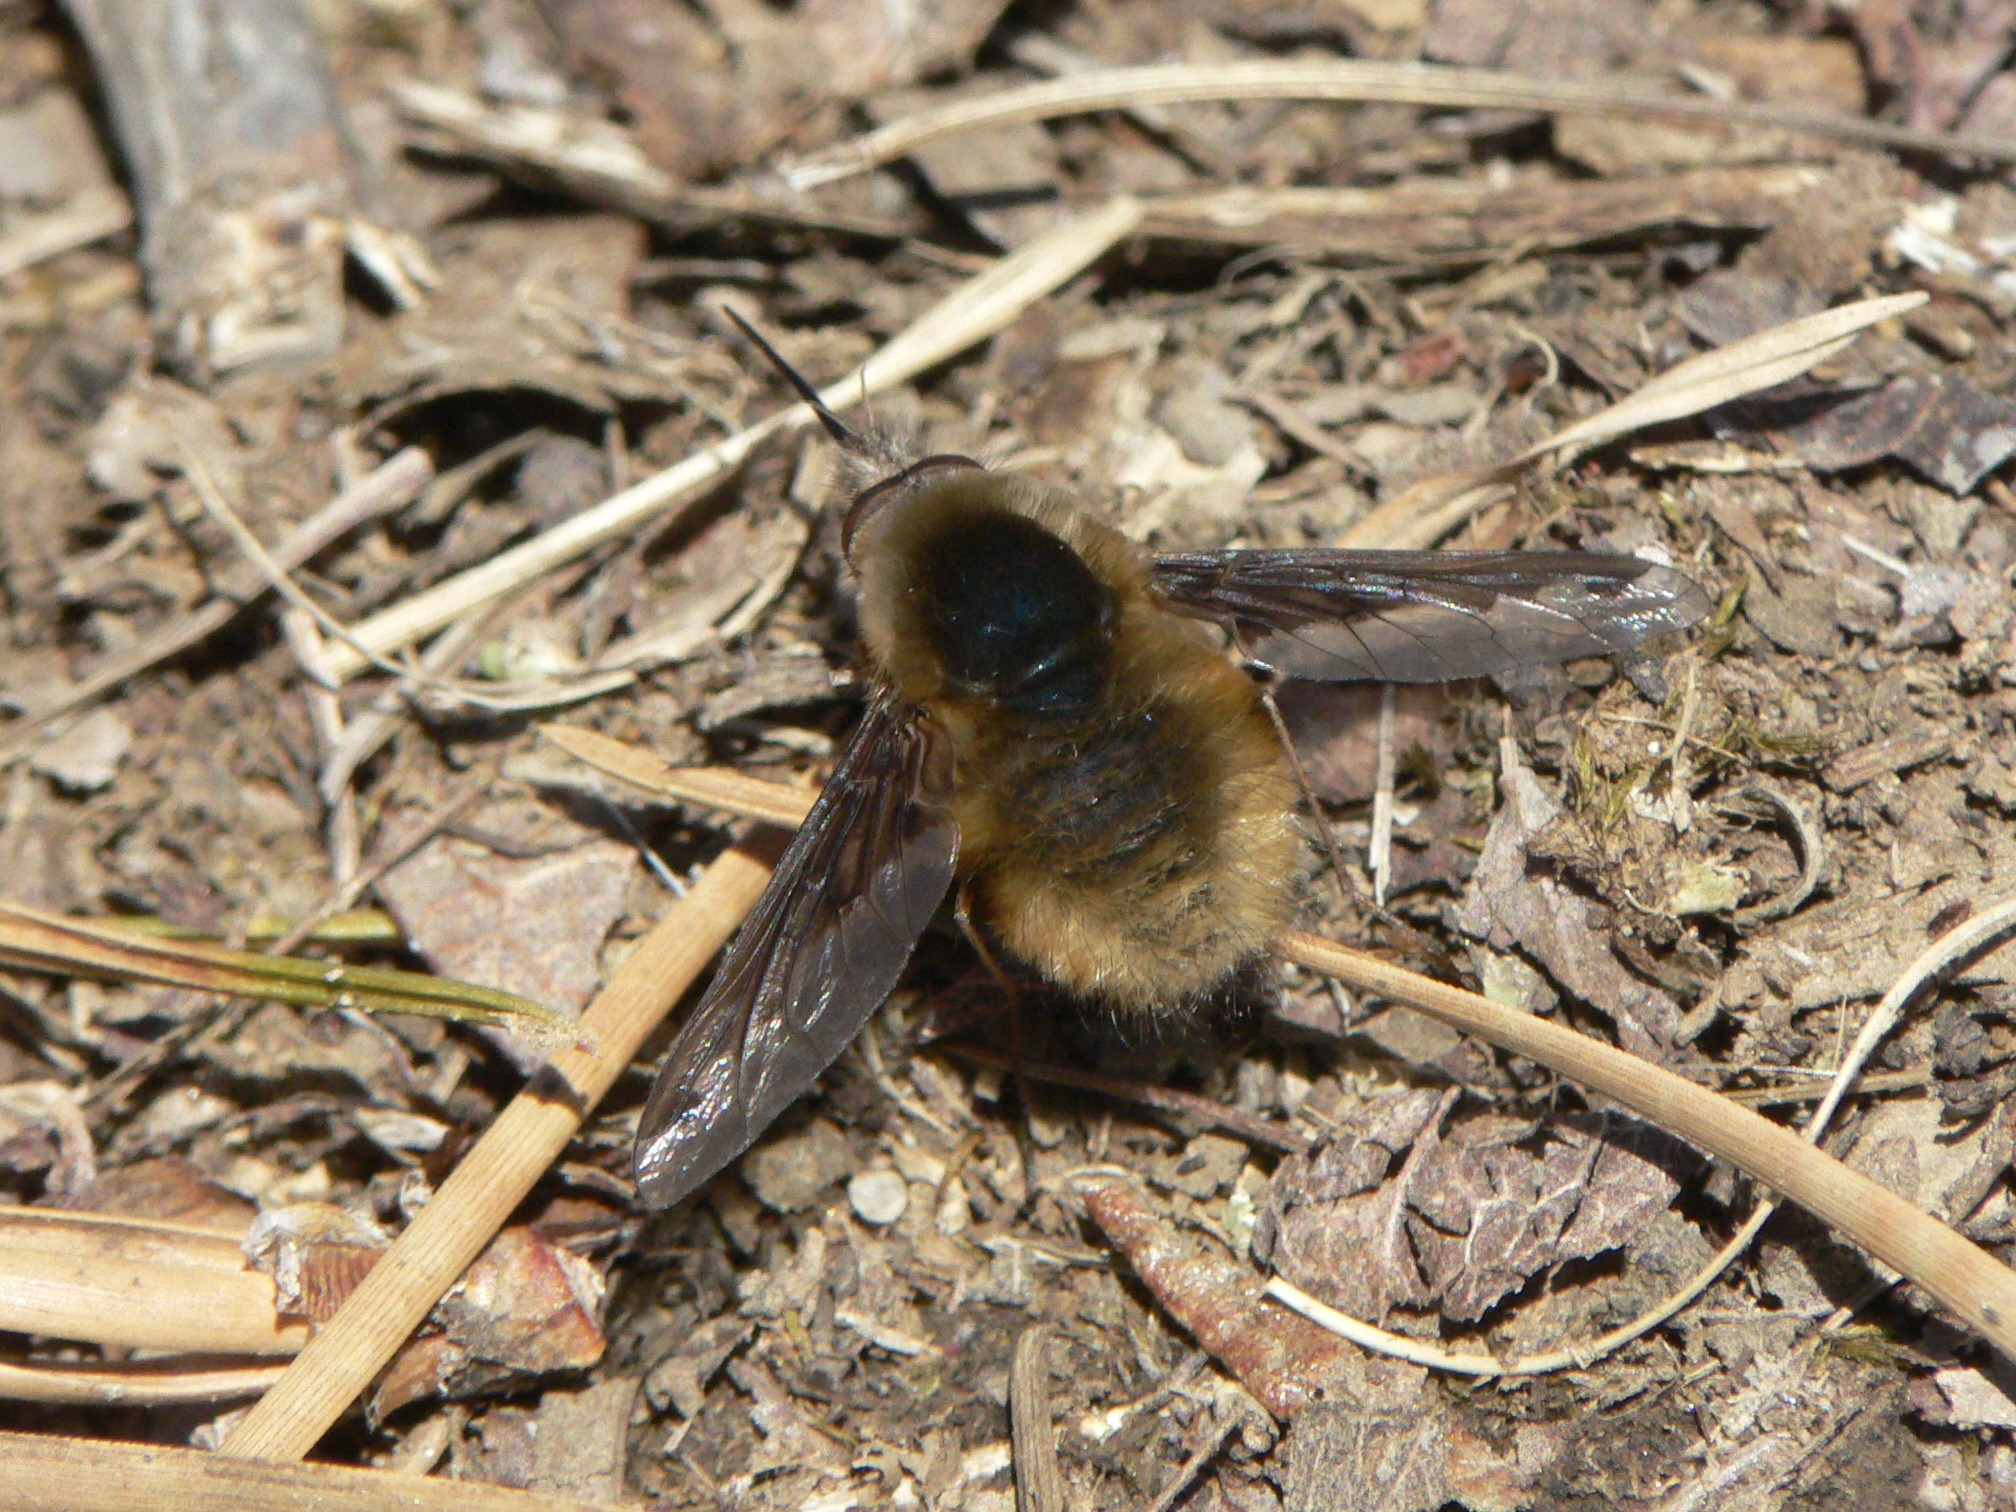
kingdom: Animalia
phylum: Arthropoda
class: Insecta
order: Diptera
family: Bombyliidae
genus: Bombylius
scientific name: Bombylius major
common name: Bee fly
